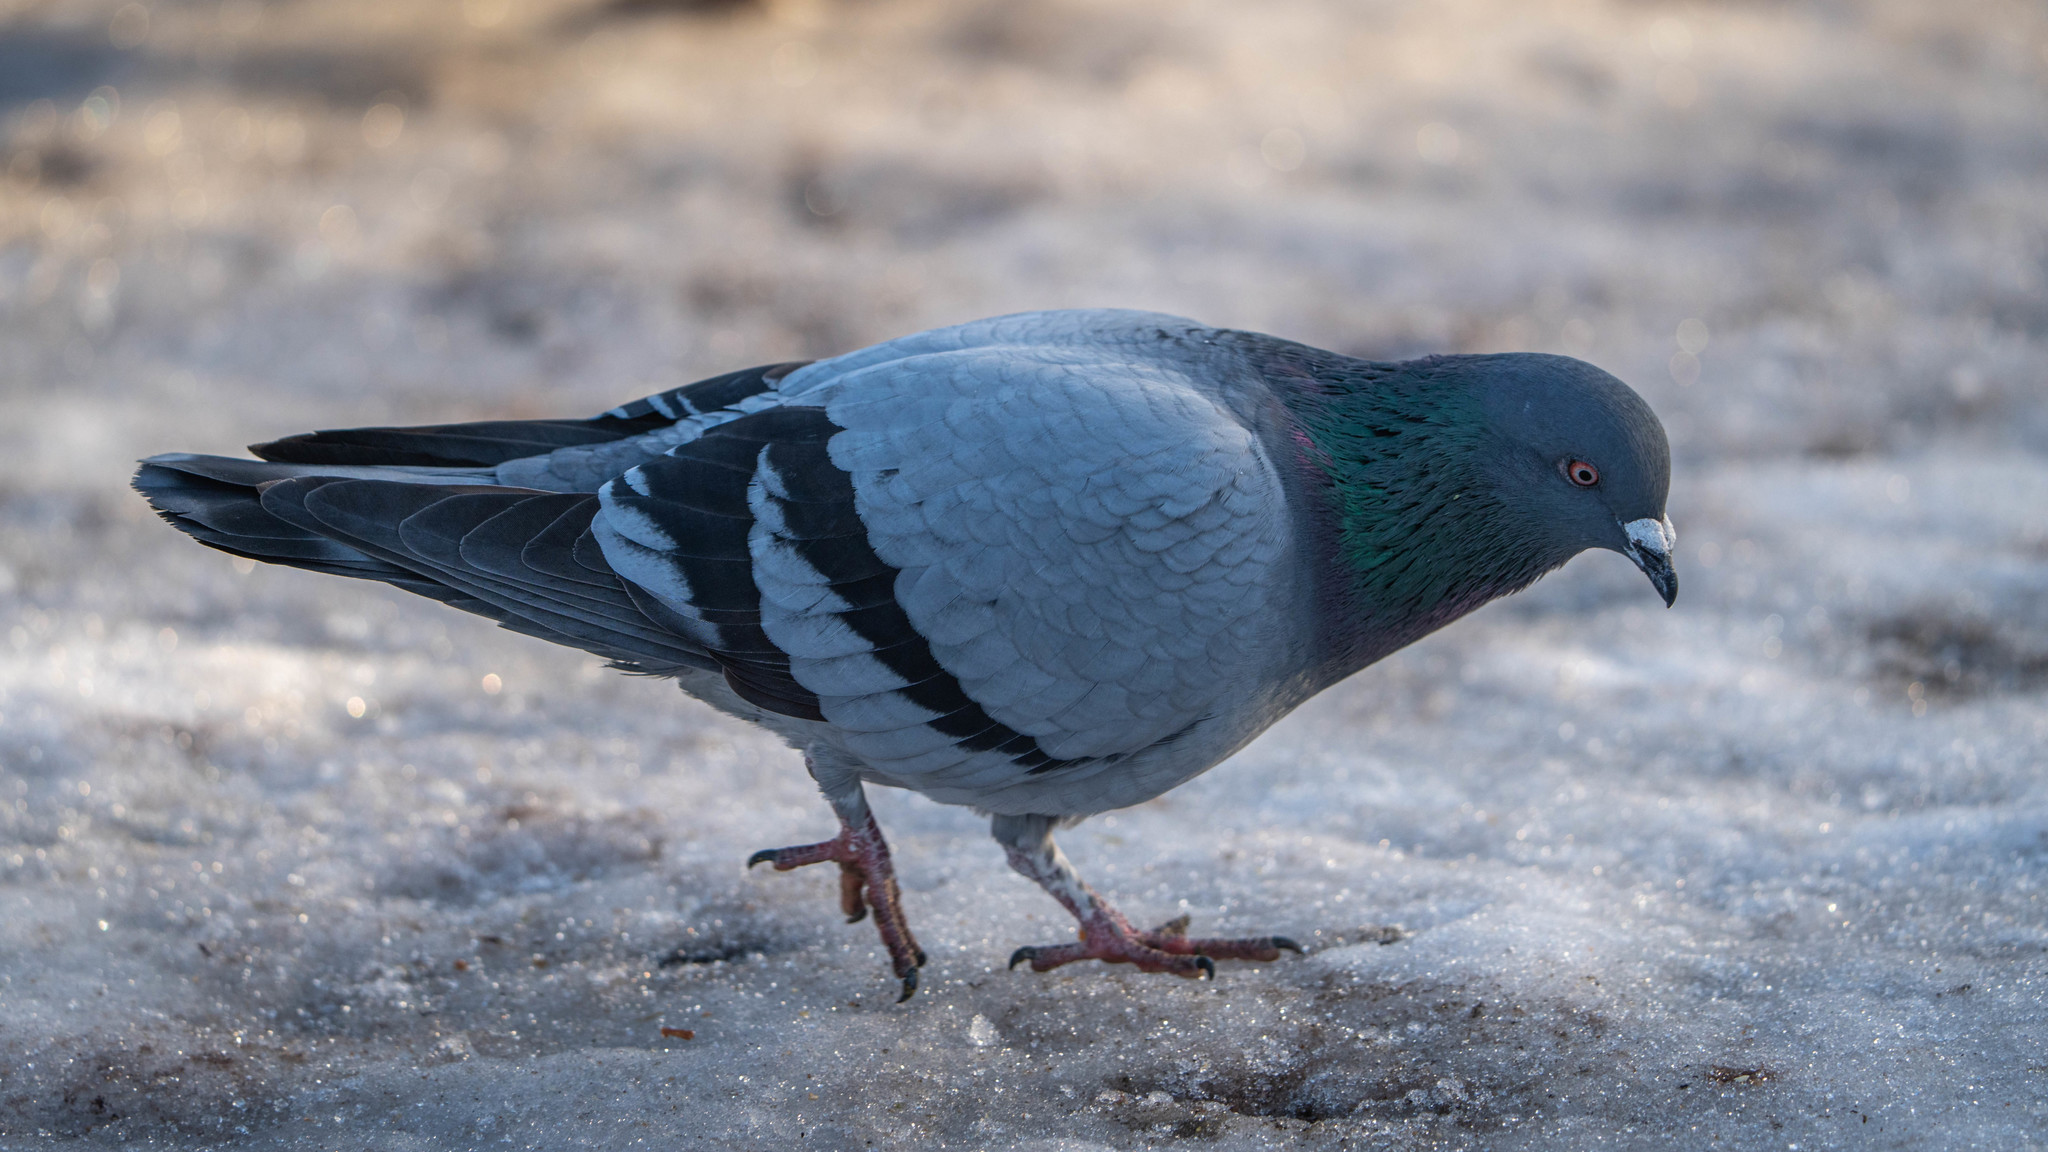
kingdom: Animalia
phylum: Chordata
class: Aves
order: Columbiformes
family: Columbidae
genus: Columba
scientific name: Columba livia
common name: Rock pigeon
